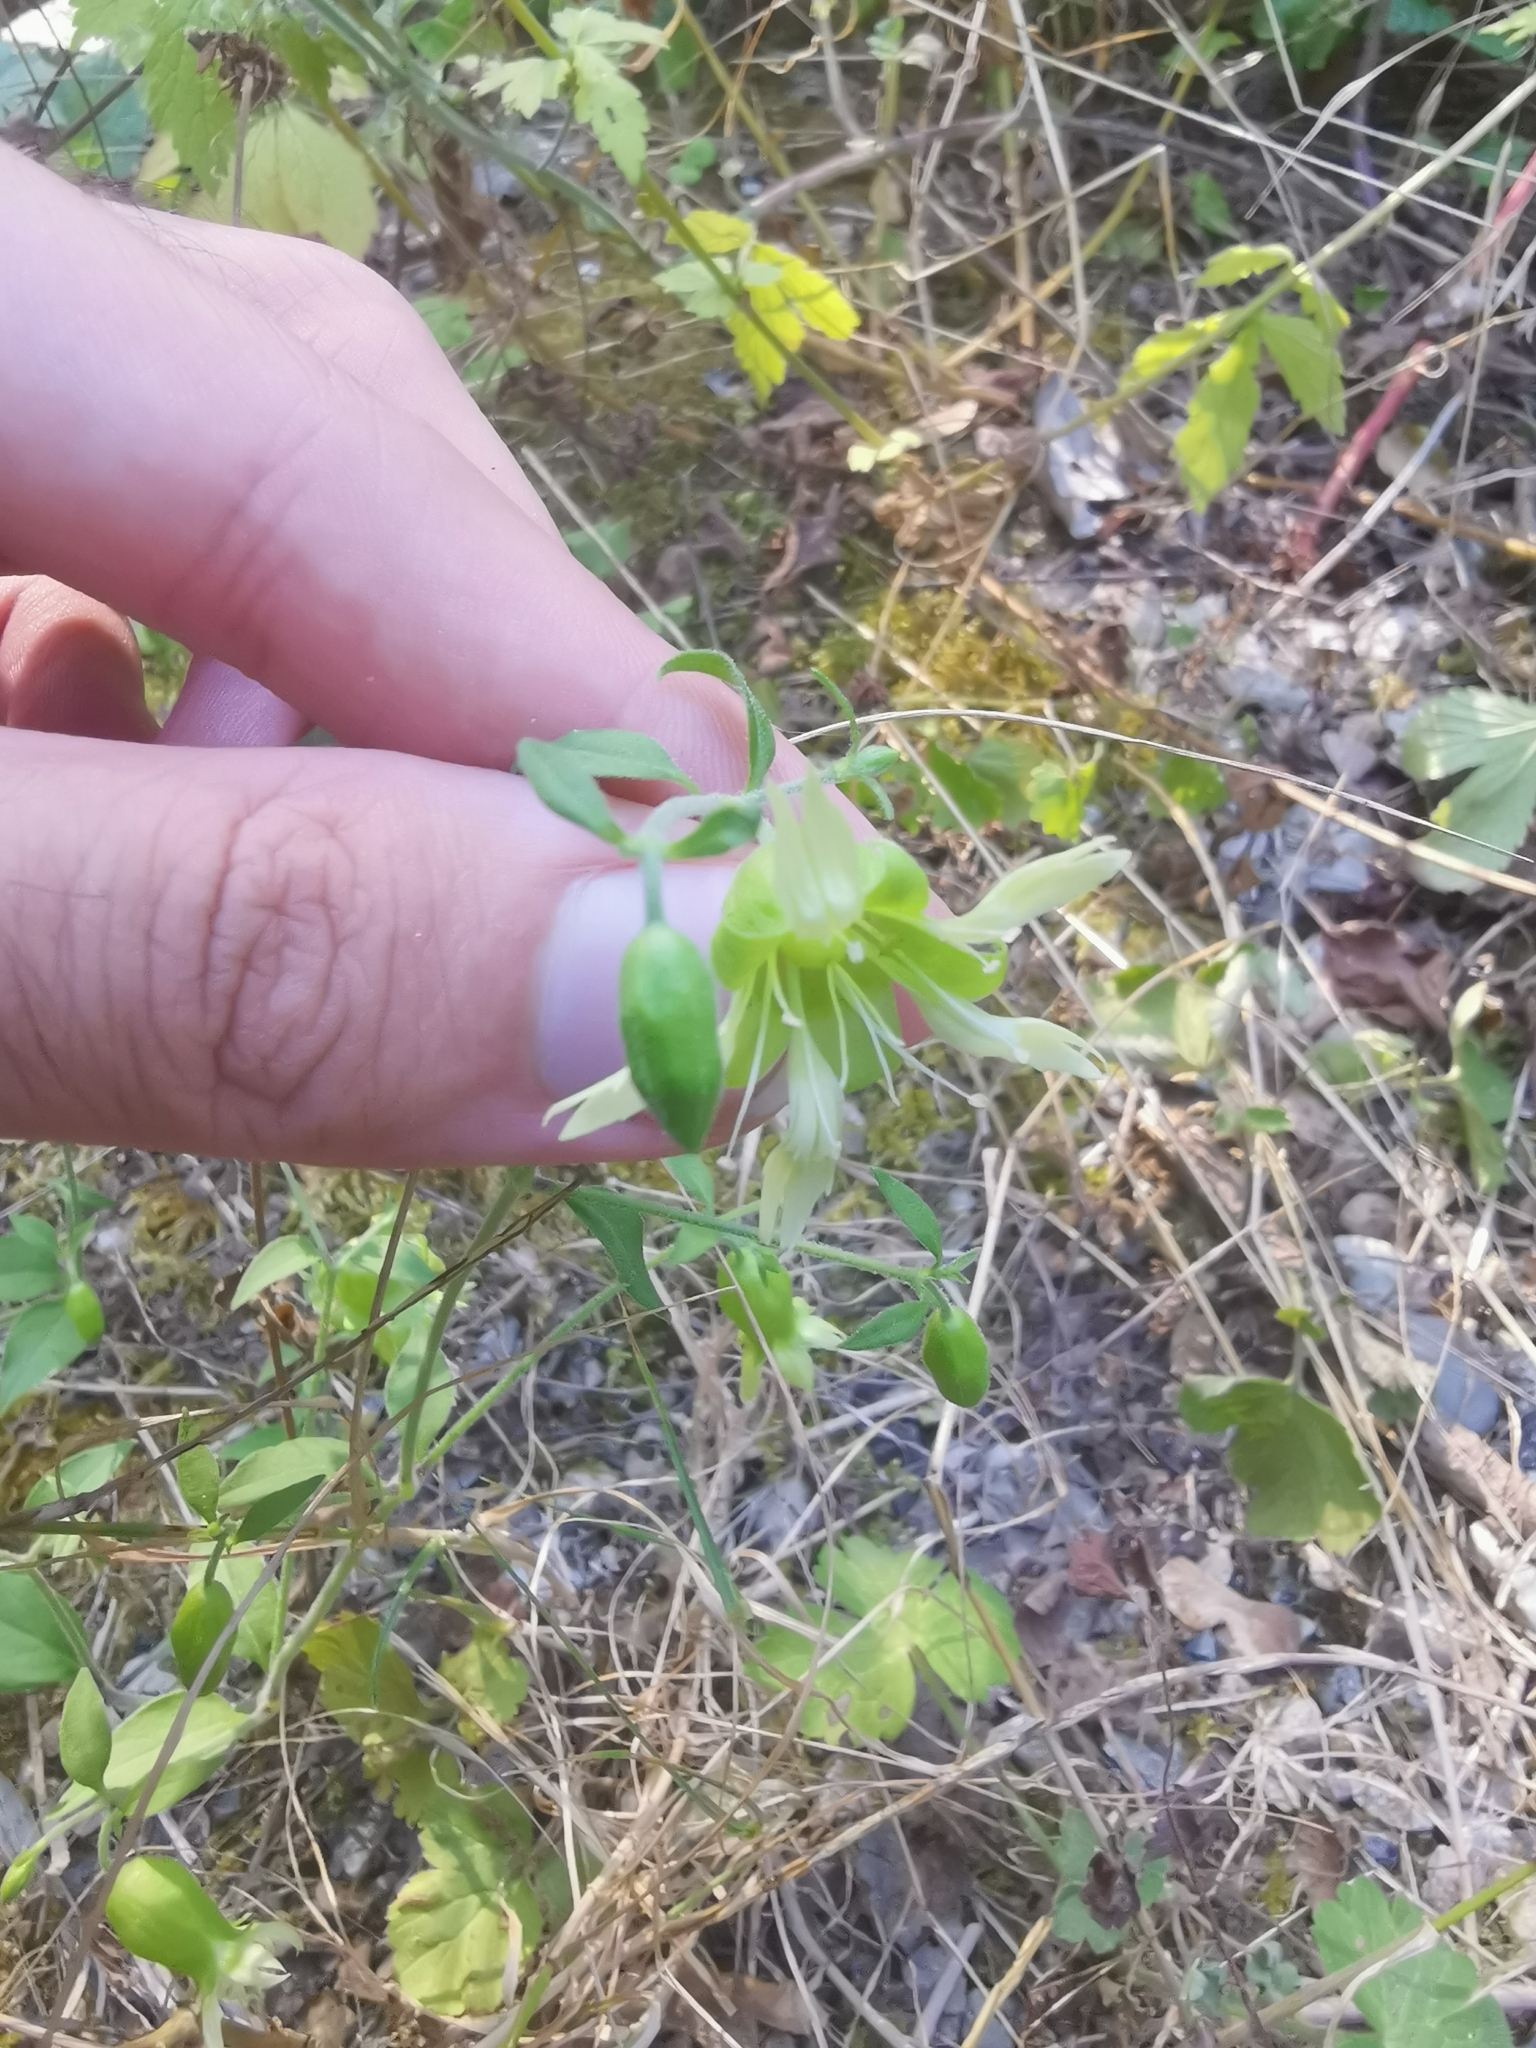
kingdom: Plantae
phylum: Tracheophyta
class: Magnoliopsida
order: Caryophyllales
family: Caryophyllaceae
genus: Silene
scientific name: Silene baccifera
